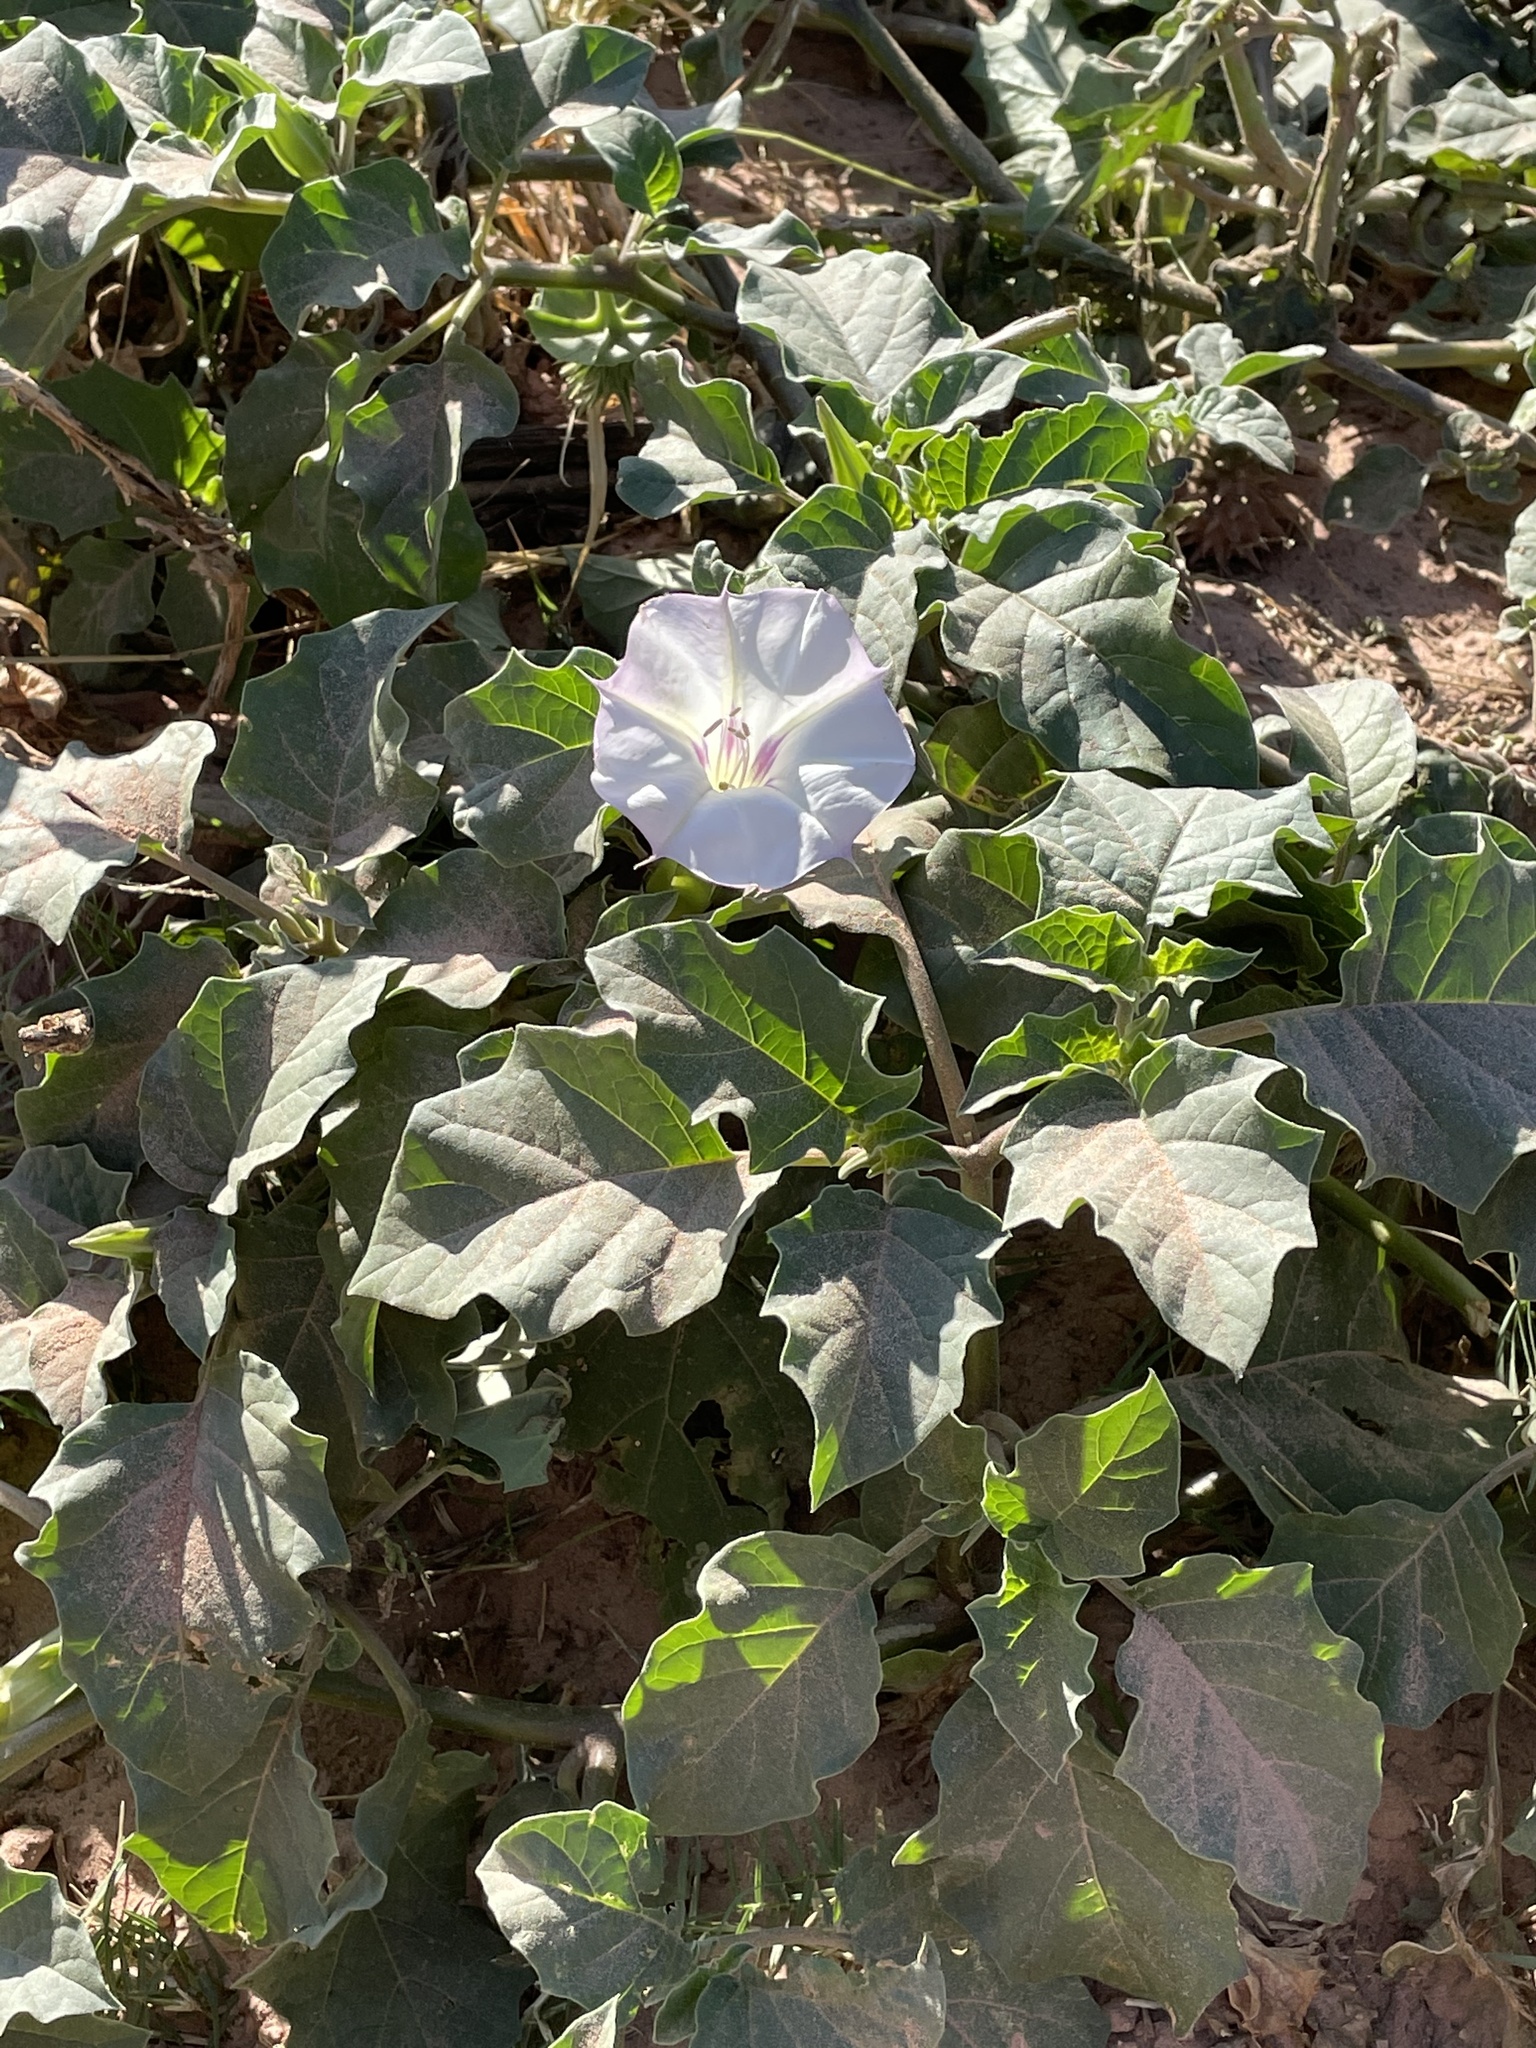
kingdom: Plantae
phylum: Tracheophyta
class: Magnoliopsida
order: Solanales
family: Solanaceae
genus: Datura
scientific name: Datura discolor
